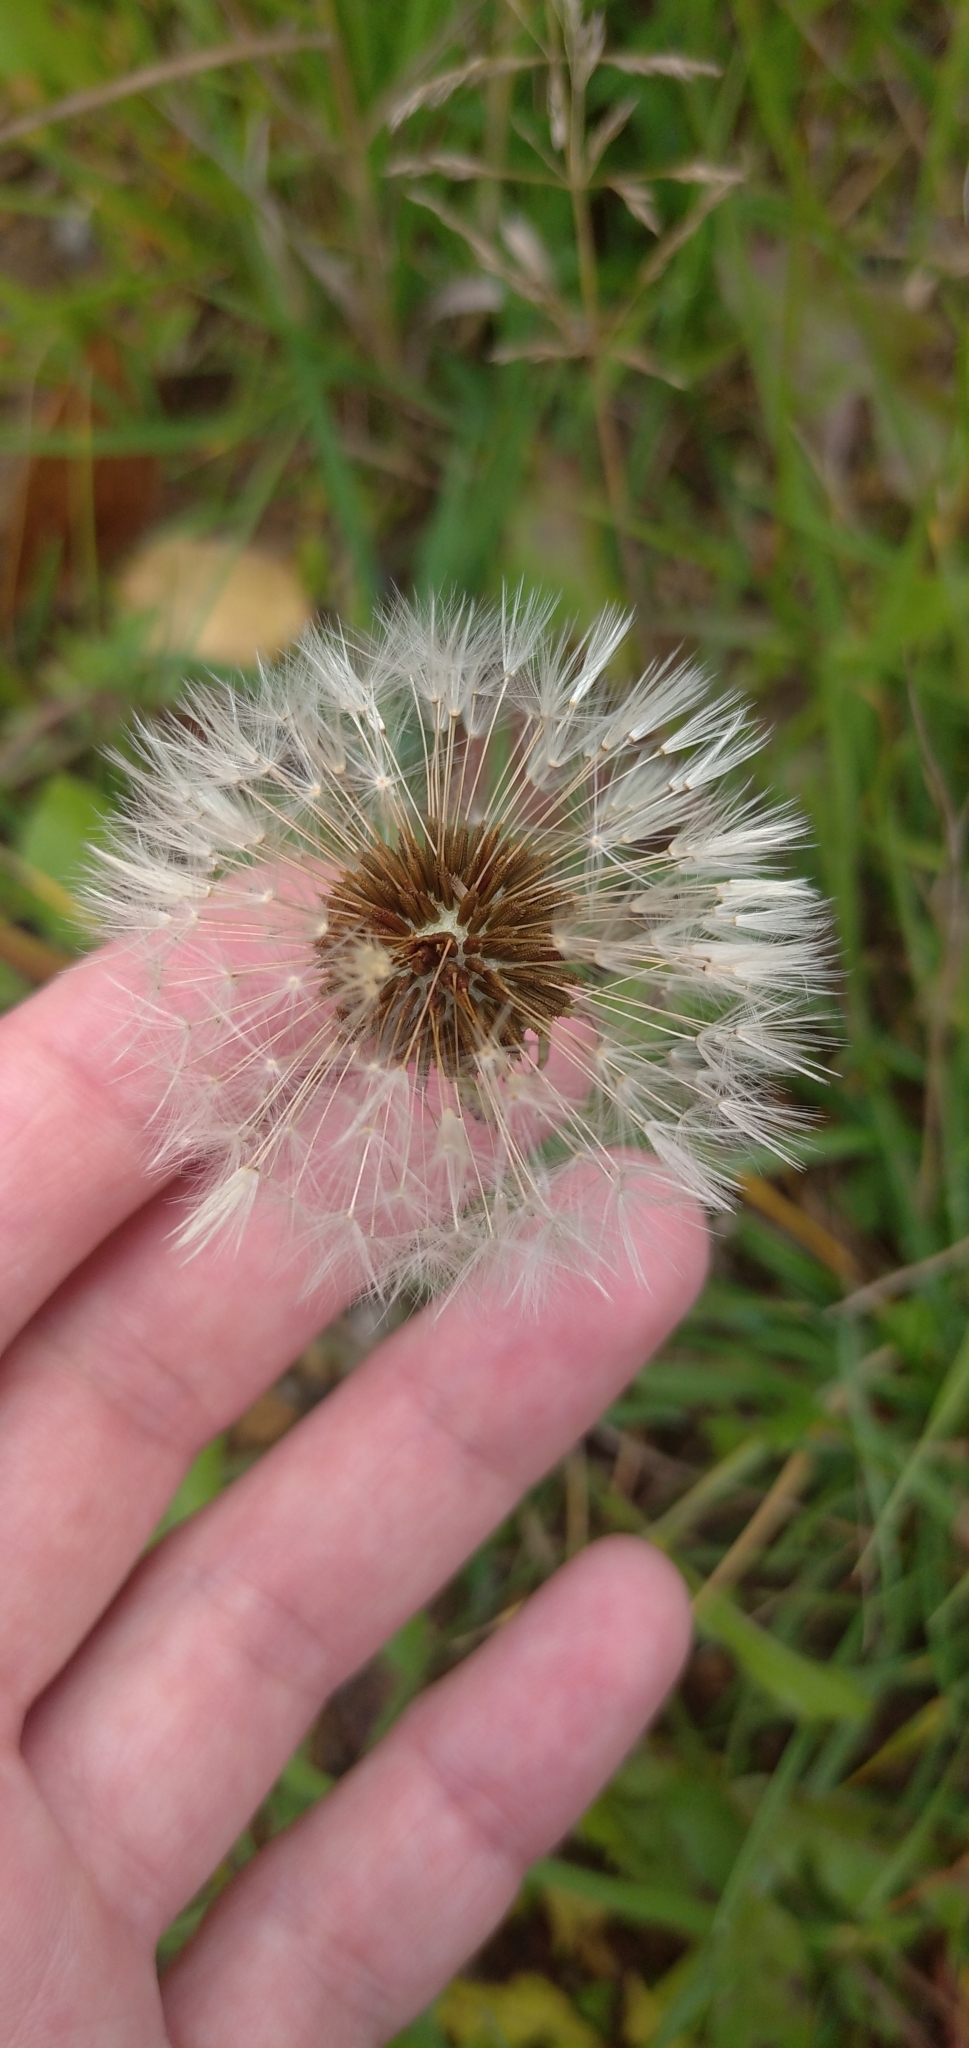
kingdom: Plantae
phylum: Tracheophyta
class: Magnoliopsida
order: Asterales
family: Asteraceae
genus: Taraxacum
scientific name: Taraxacum officinale
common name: Common dandelion
